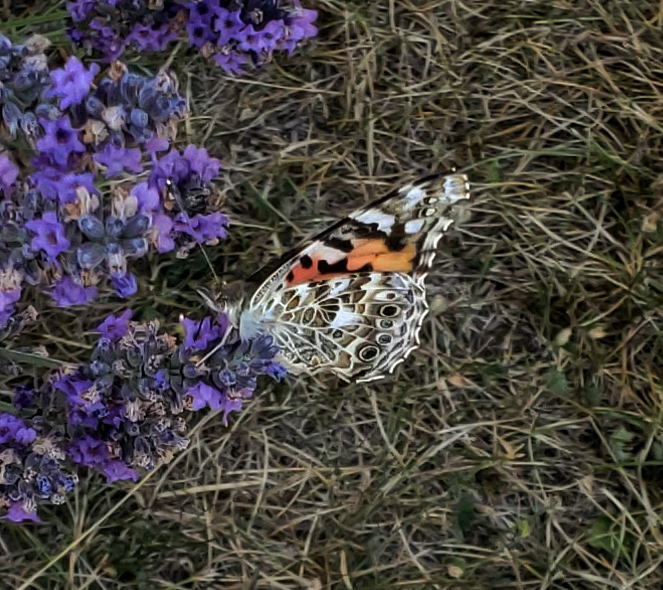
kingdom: Animalia
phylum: Arthropoda
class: Insecta
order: Lepidoptera
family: Nymphalidae
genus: Vanessa
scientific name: Vanessa cardui
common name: Painted lady
